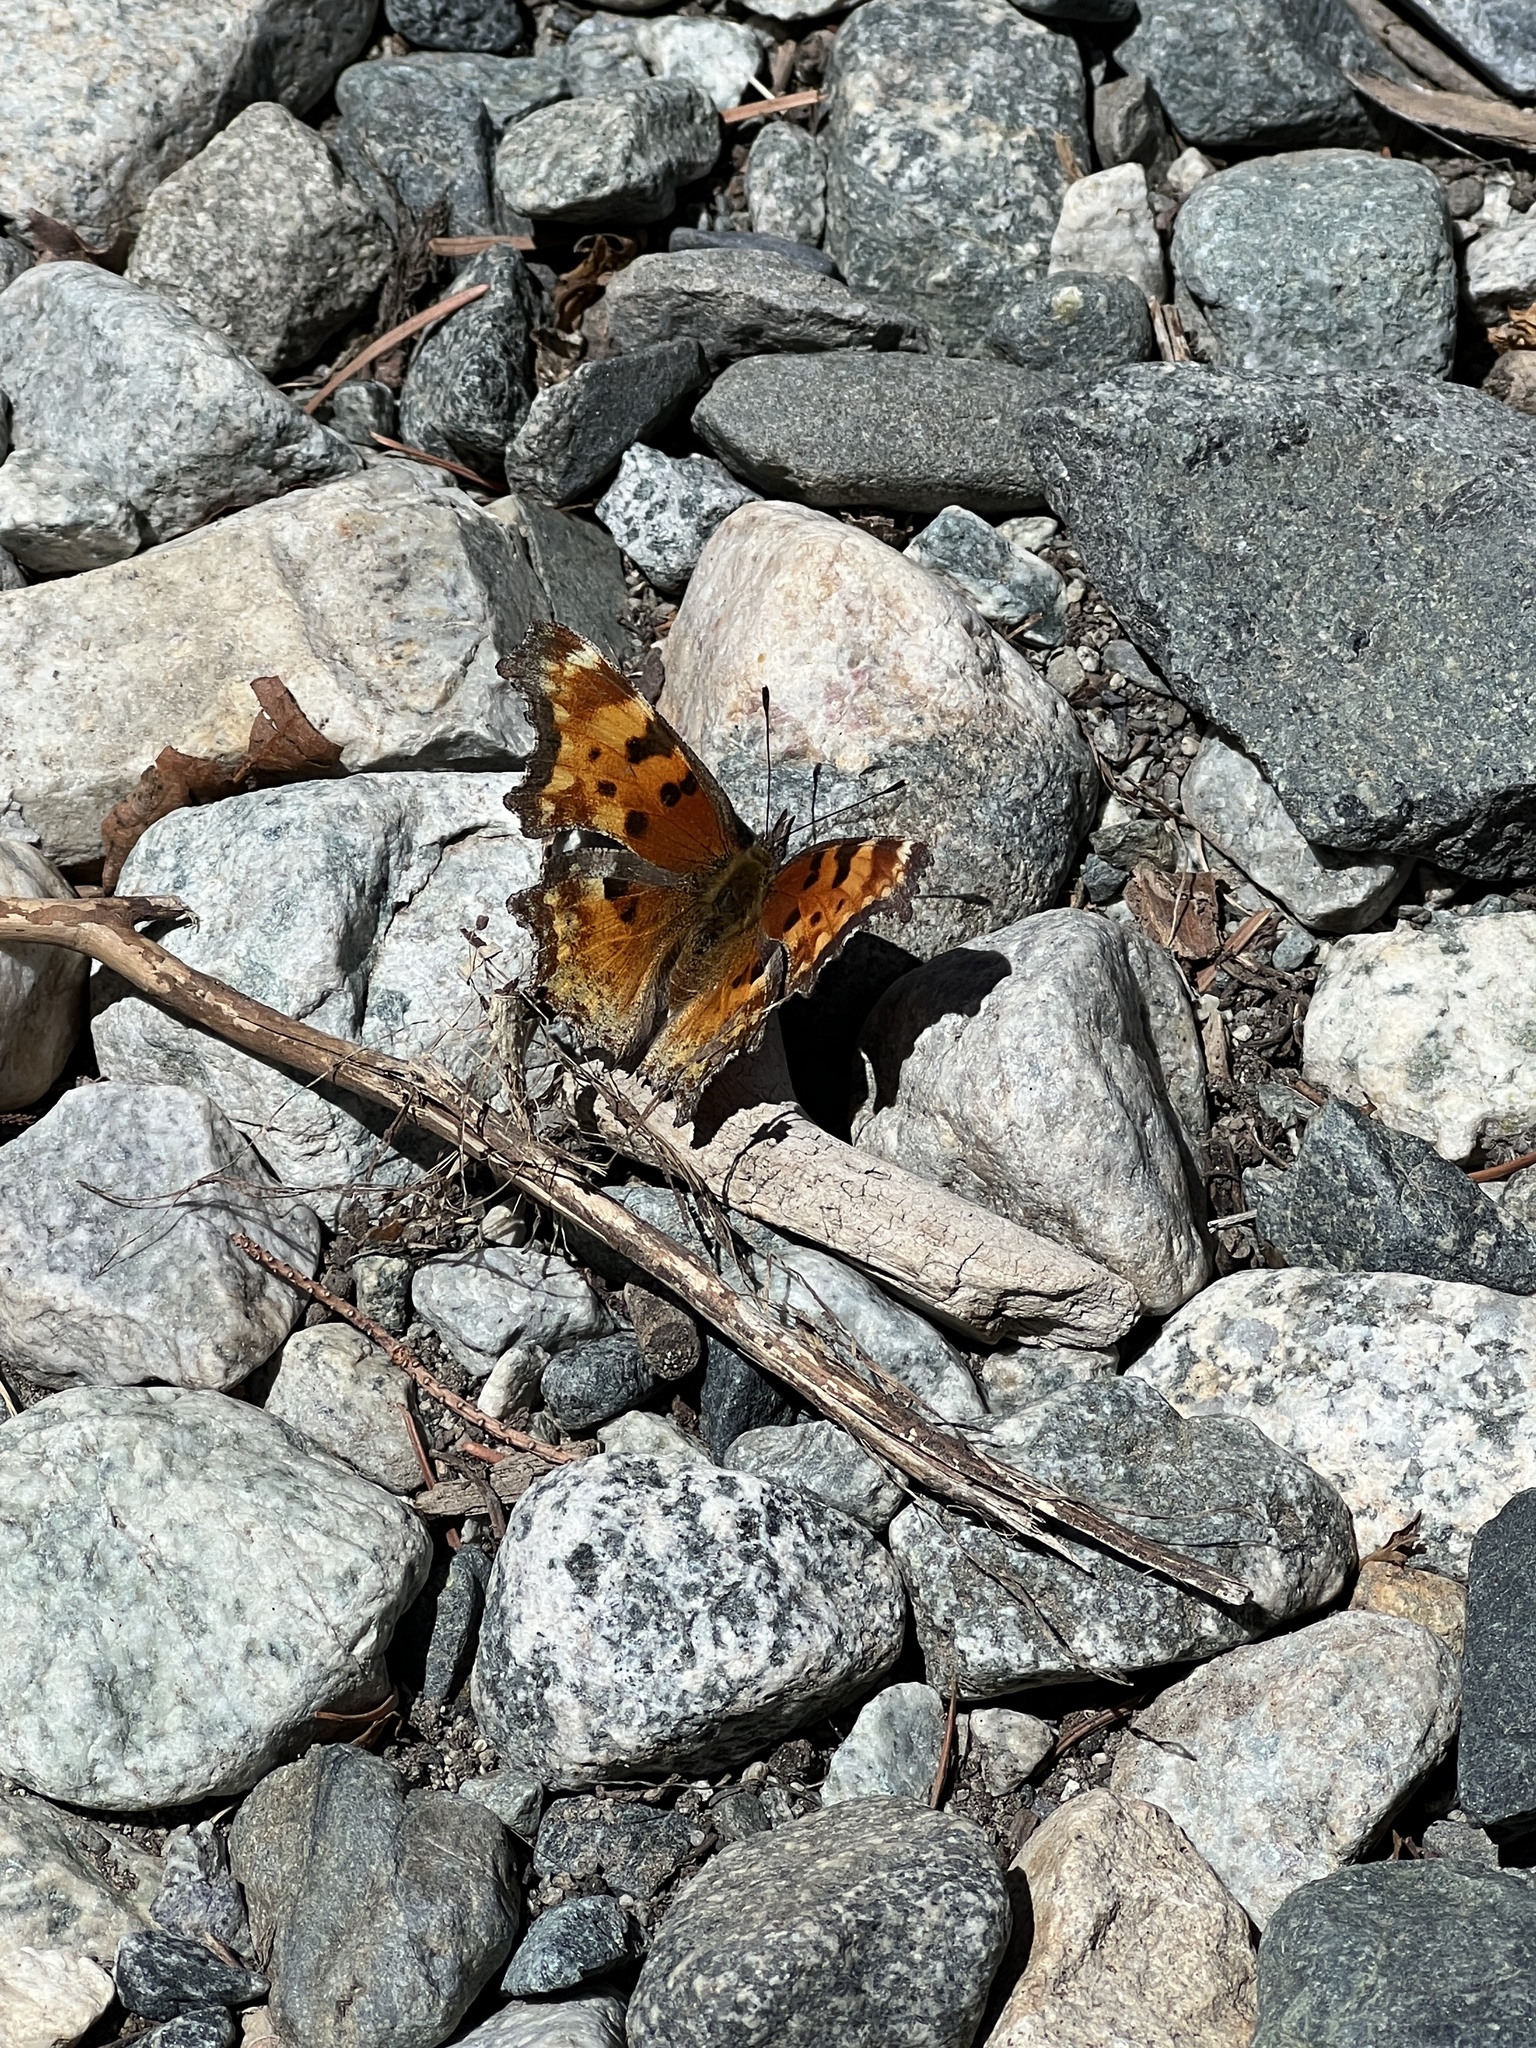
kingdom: Animalia
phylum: Arthropoda
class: Insecta
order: Lepidoptera
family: Nymphalidae
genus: Polygonia
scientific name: Polygonia gracilis
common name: Hoary comma
